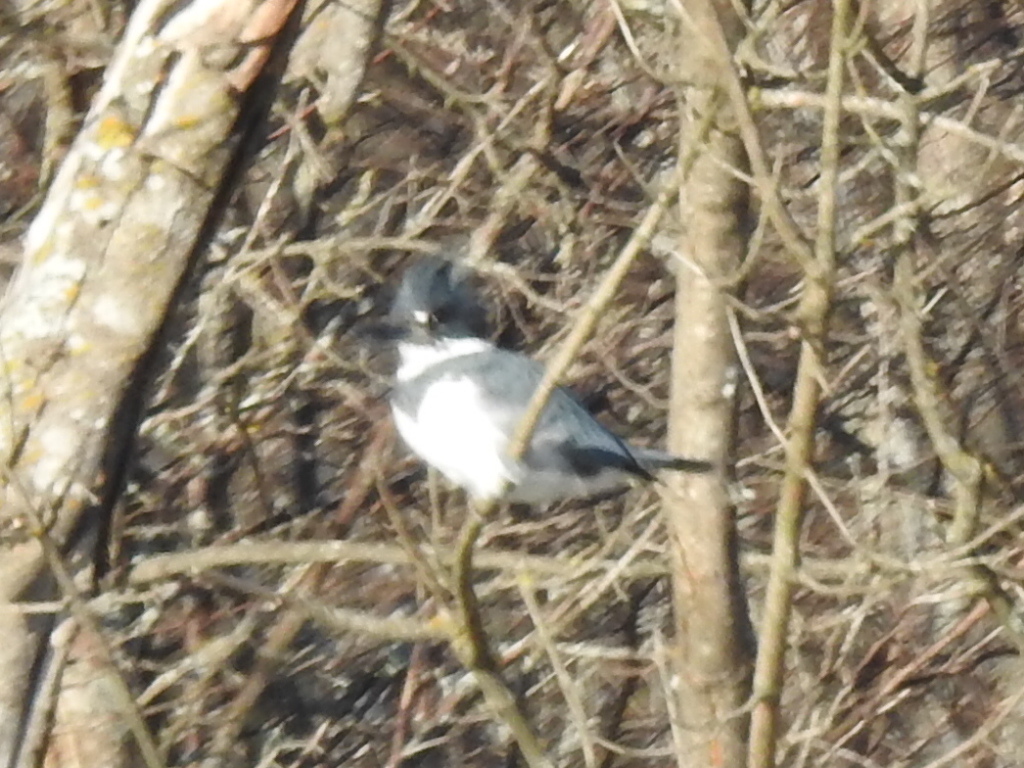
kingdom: Animalia
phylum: Chordata
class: Aves
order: Coraciiformes
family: Alcedinidae
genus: Megaceryle
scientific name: Megaceryle alcyon
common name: Belted kingfisher
